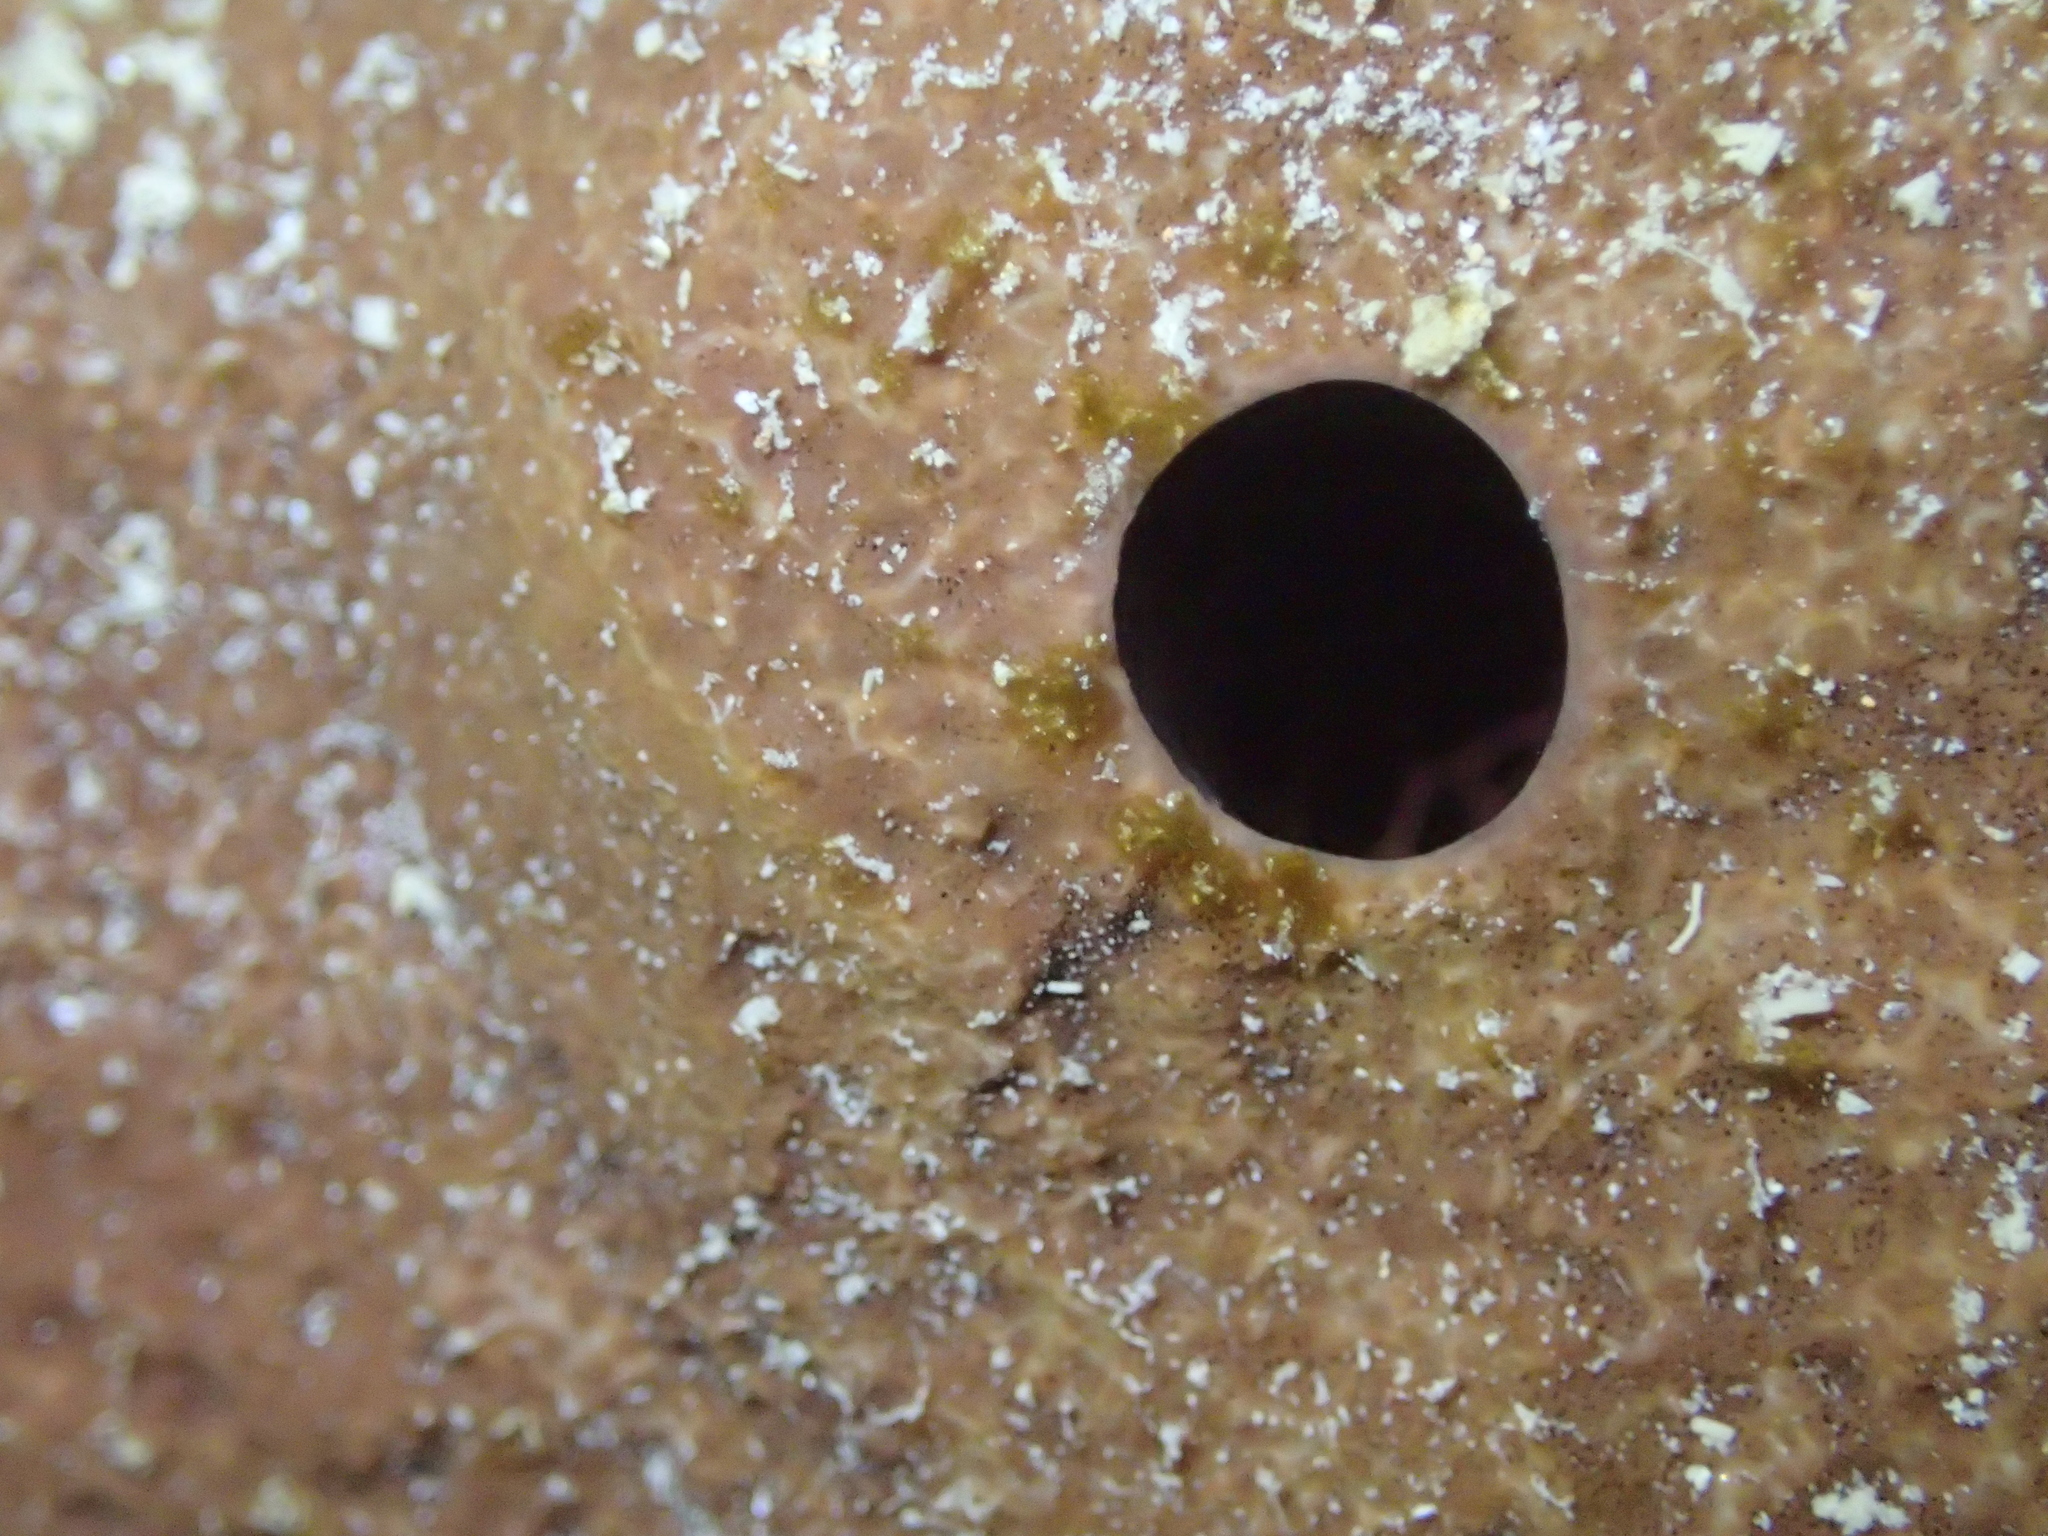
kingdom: Animalia
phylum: Porifera
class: Demospongiae
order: Haplosclerida
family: Petrosiidae
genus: Petrosia
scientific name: Petrosia ficiformis
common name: Stony sponge
